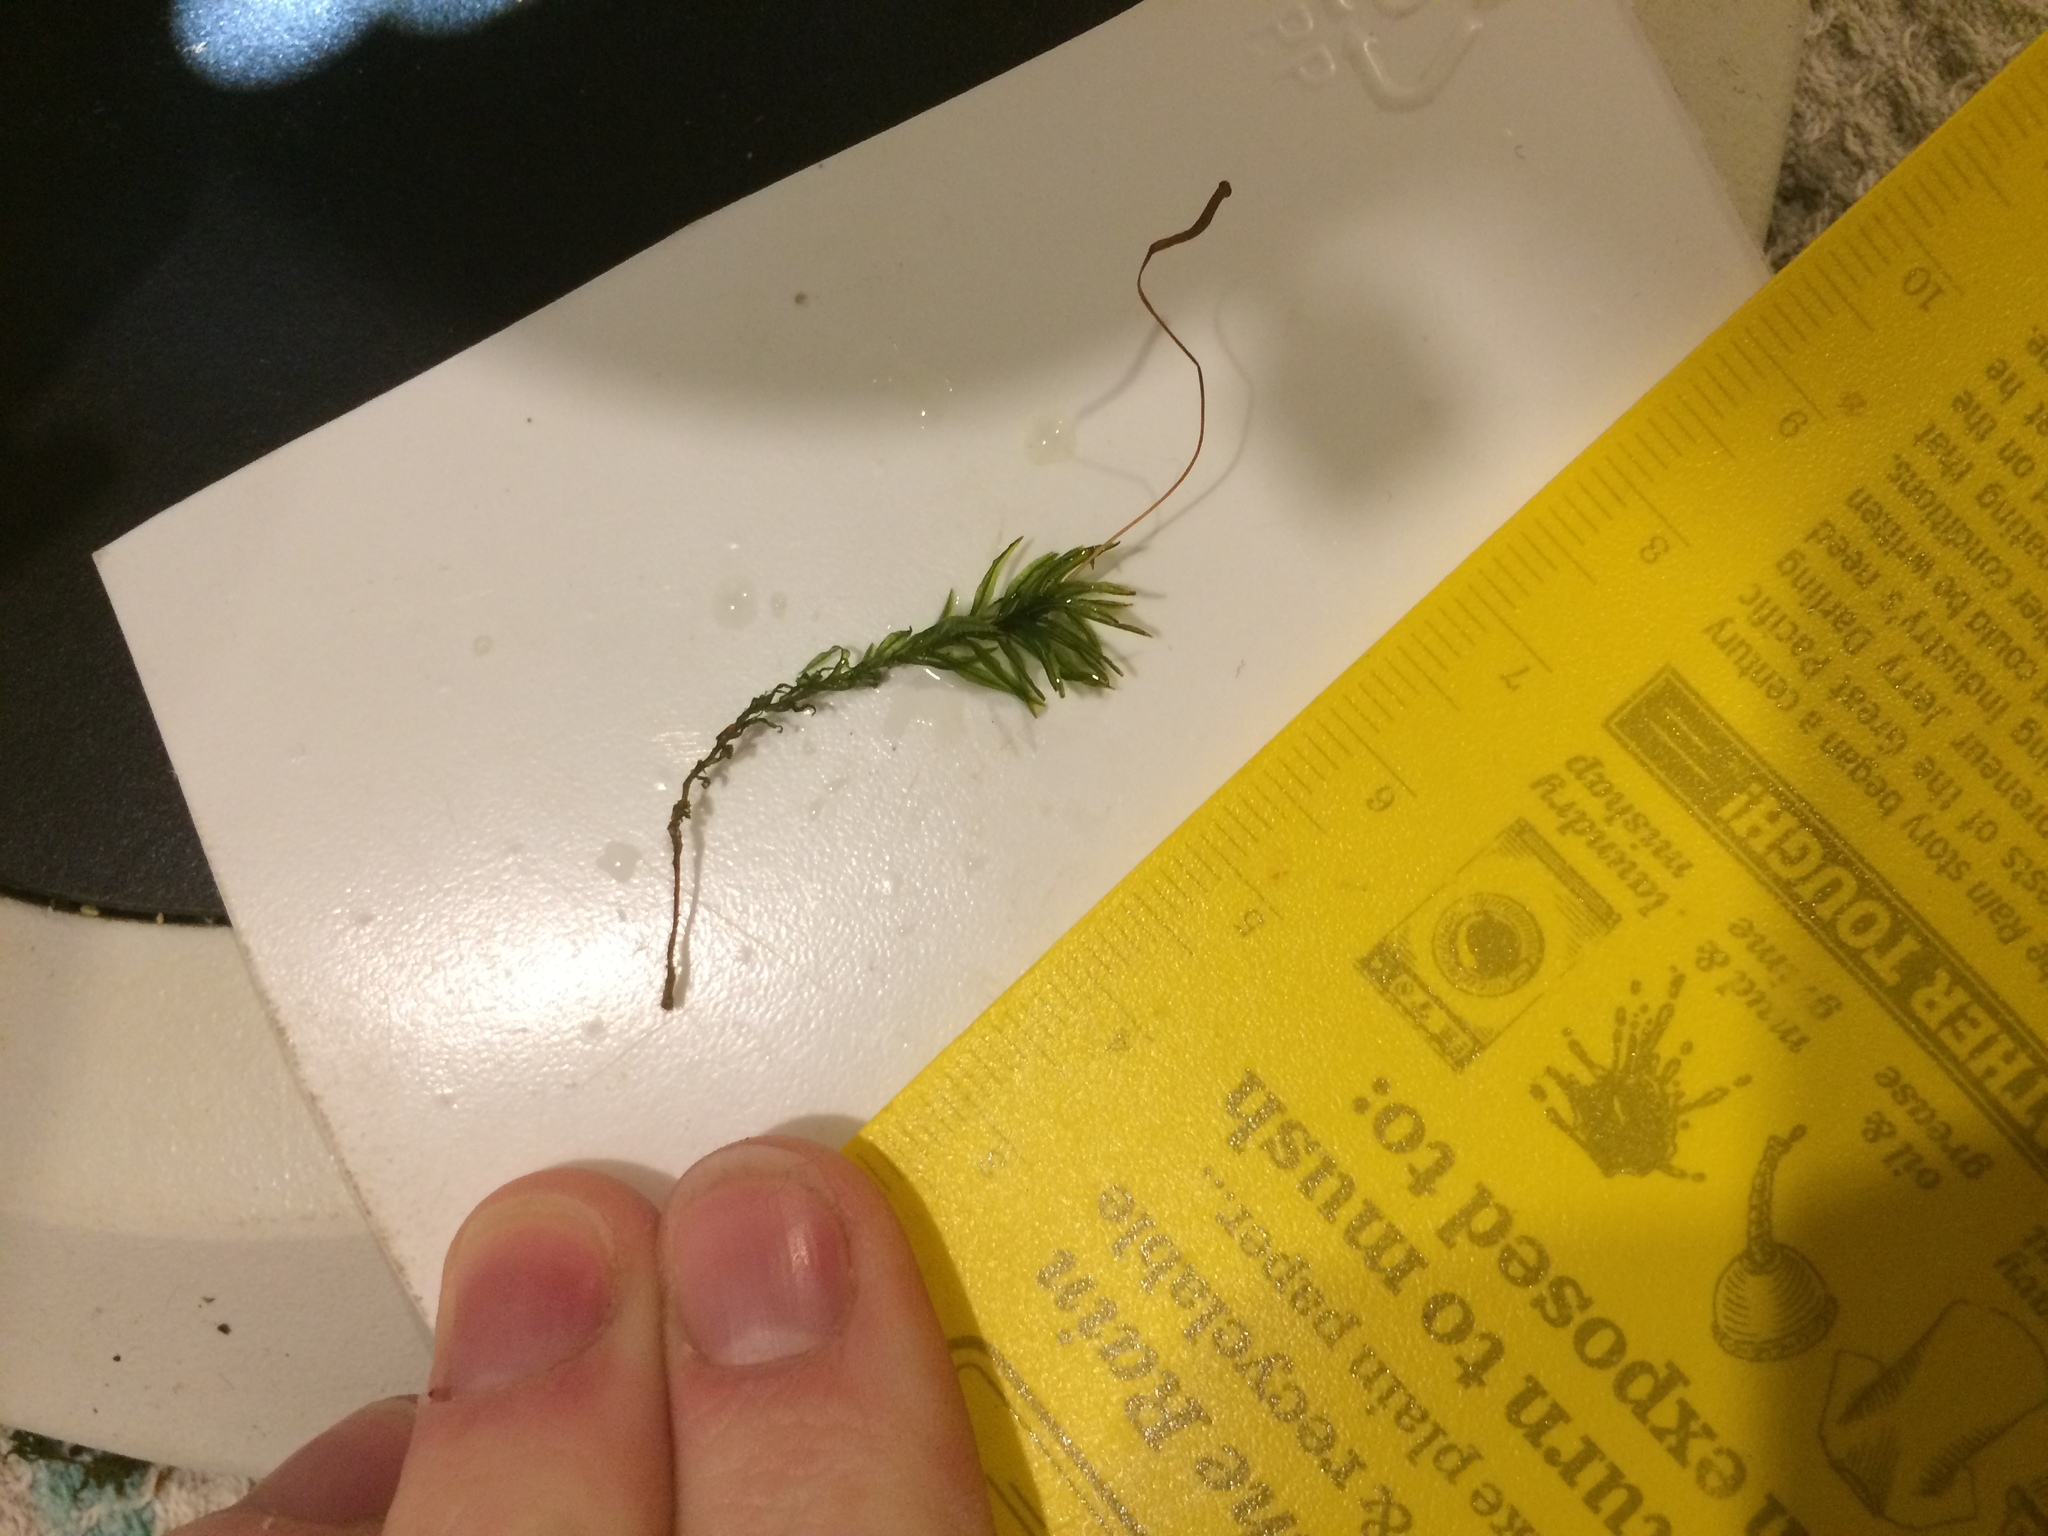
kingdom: Plantae
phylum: Bryophyta
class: Polytrichopsida
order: Polytrichales
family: Polytrichaceae
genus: Atrichum
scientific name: Atrichum crispulum
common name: Strongly crispate smoothcap moss
